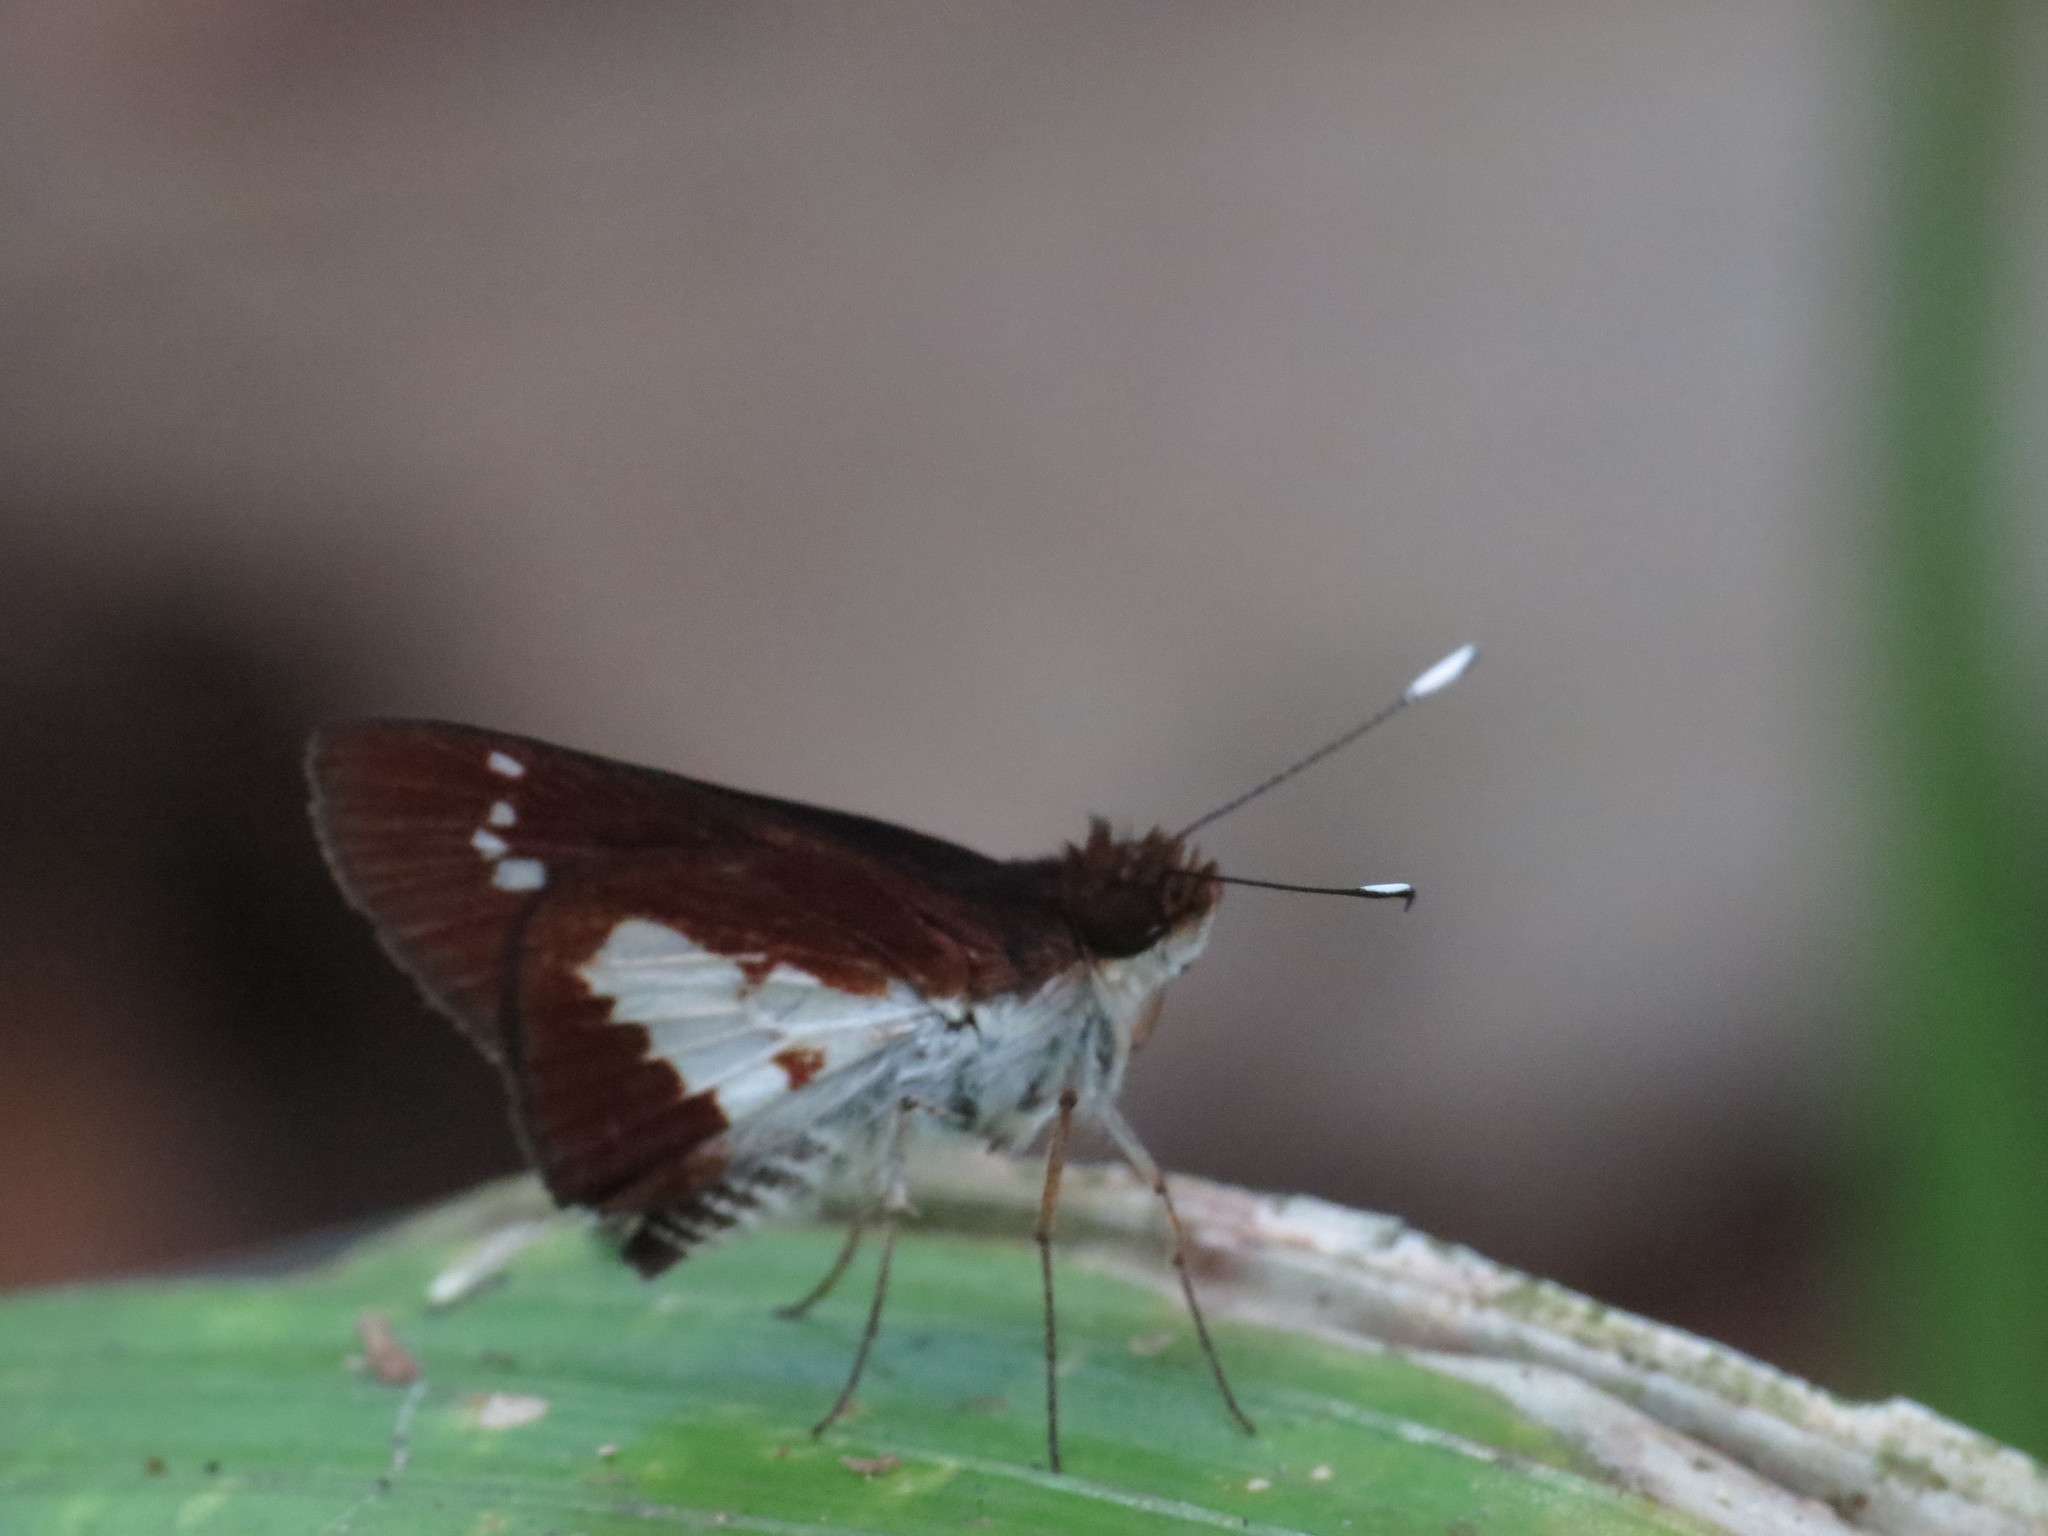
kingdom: Animalia
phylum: Arthropoda
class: Insecta
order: Lepidoptera
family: Hesperiidae
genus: Sabera
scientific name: Sabera caesina
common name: White-clubbed swift
